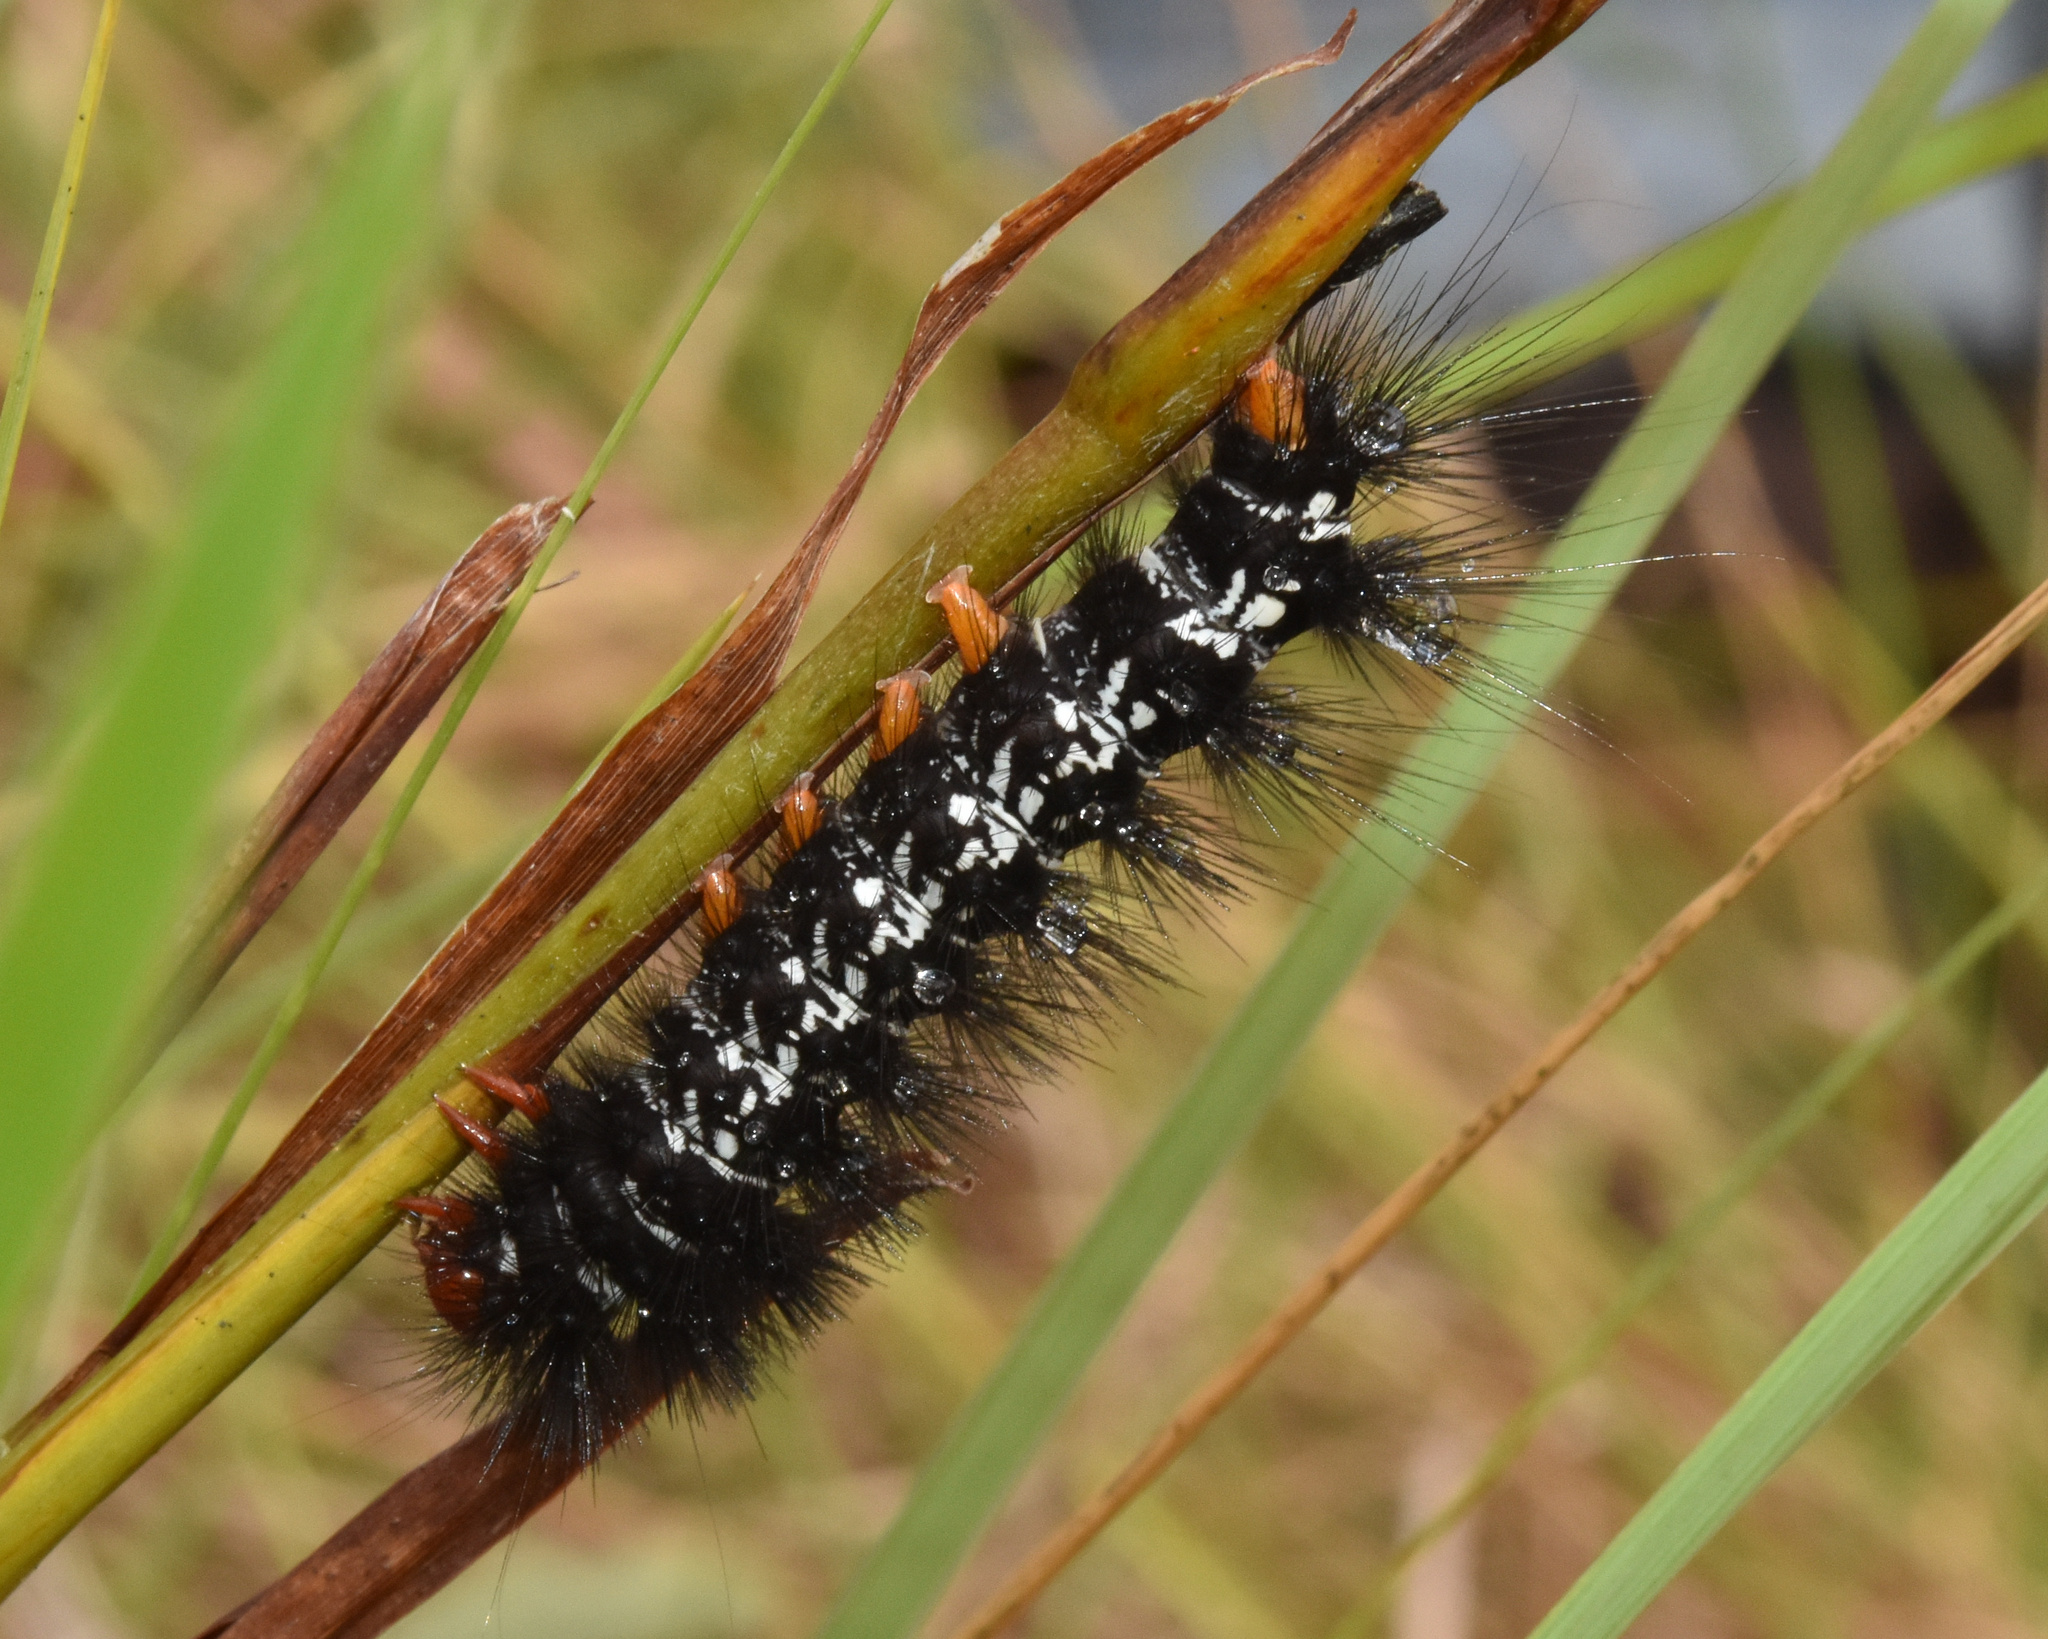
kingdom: Animalia
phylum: Arthropoda
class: Insecta
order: Lepidoptera
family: Erebidae
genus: Afromurzinia
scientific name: Afromurzinia lutescens
